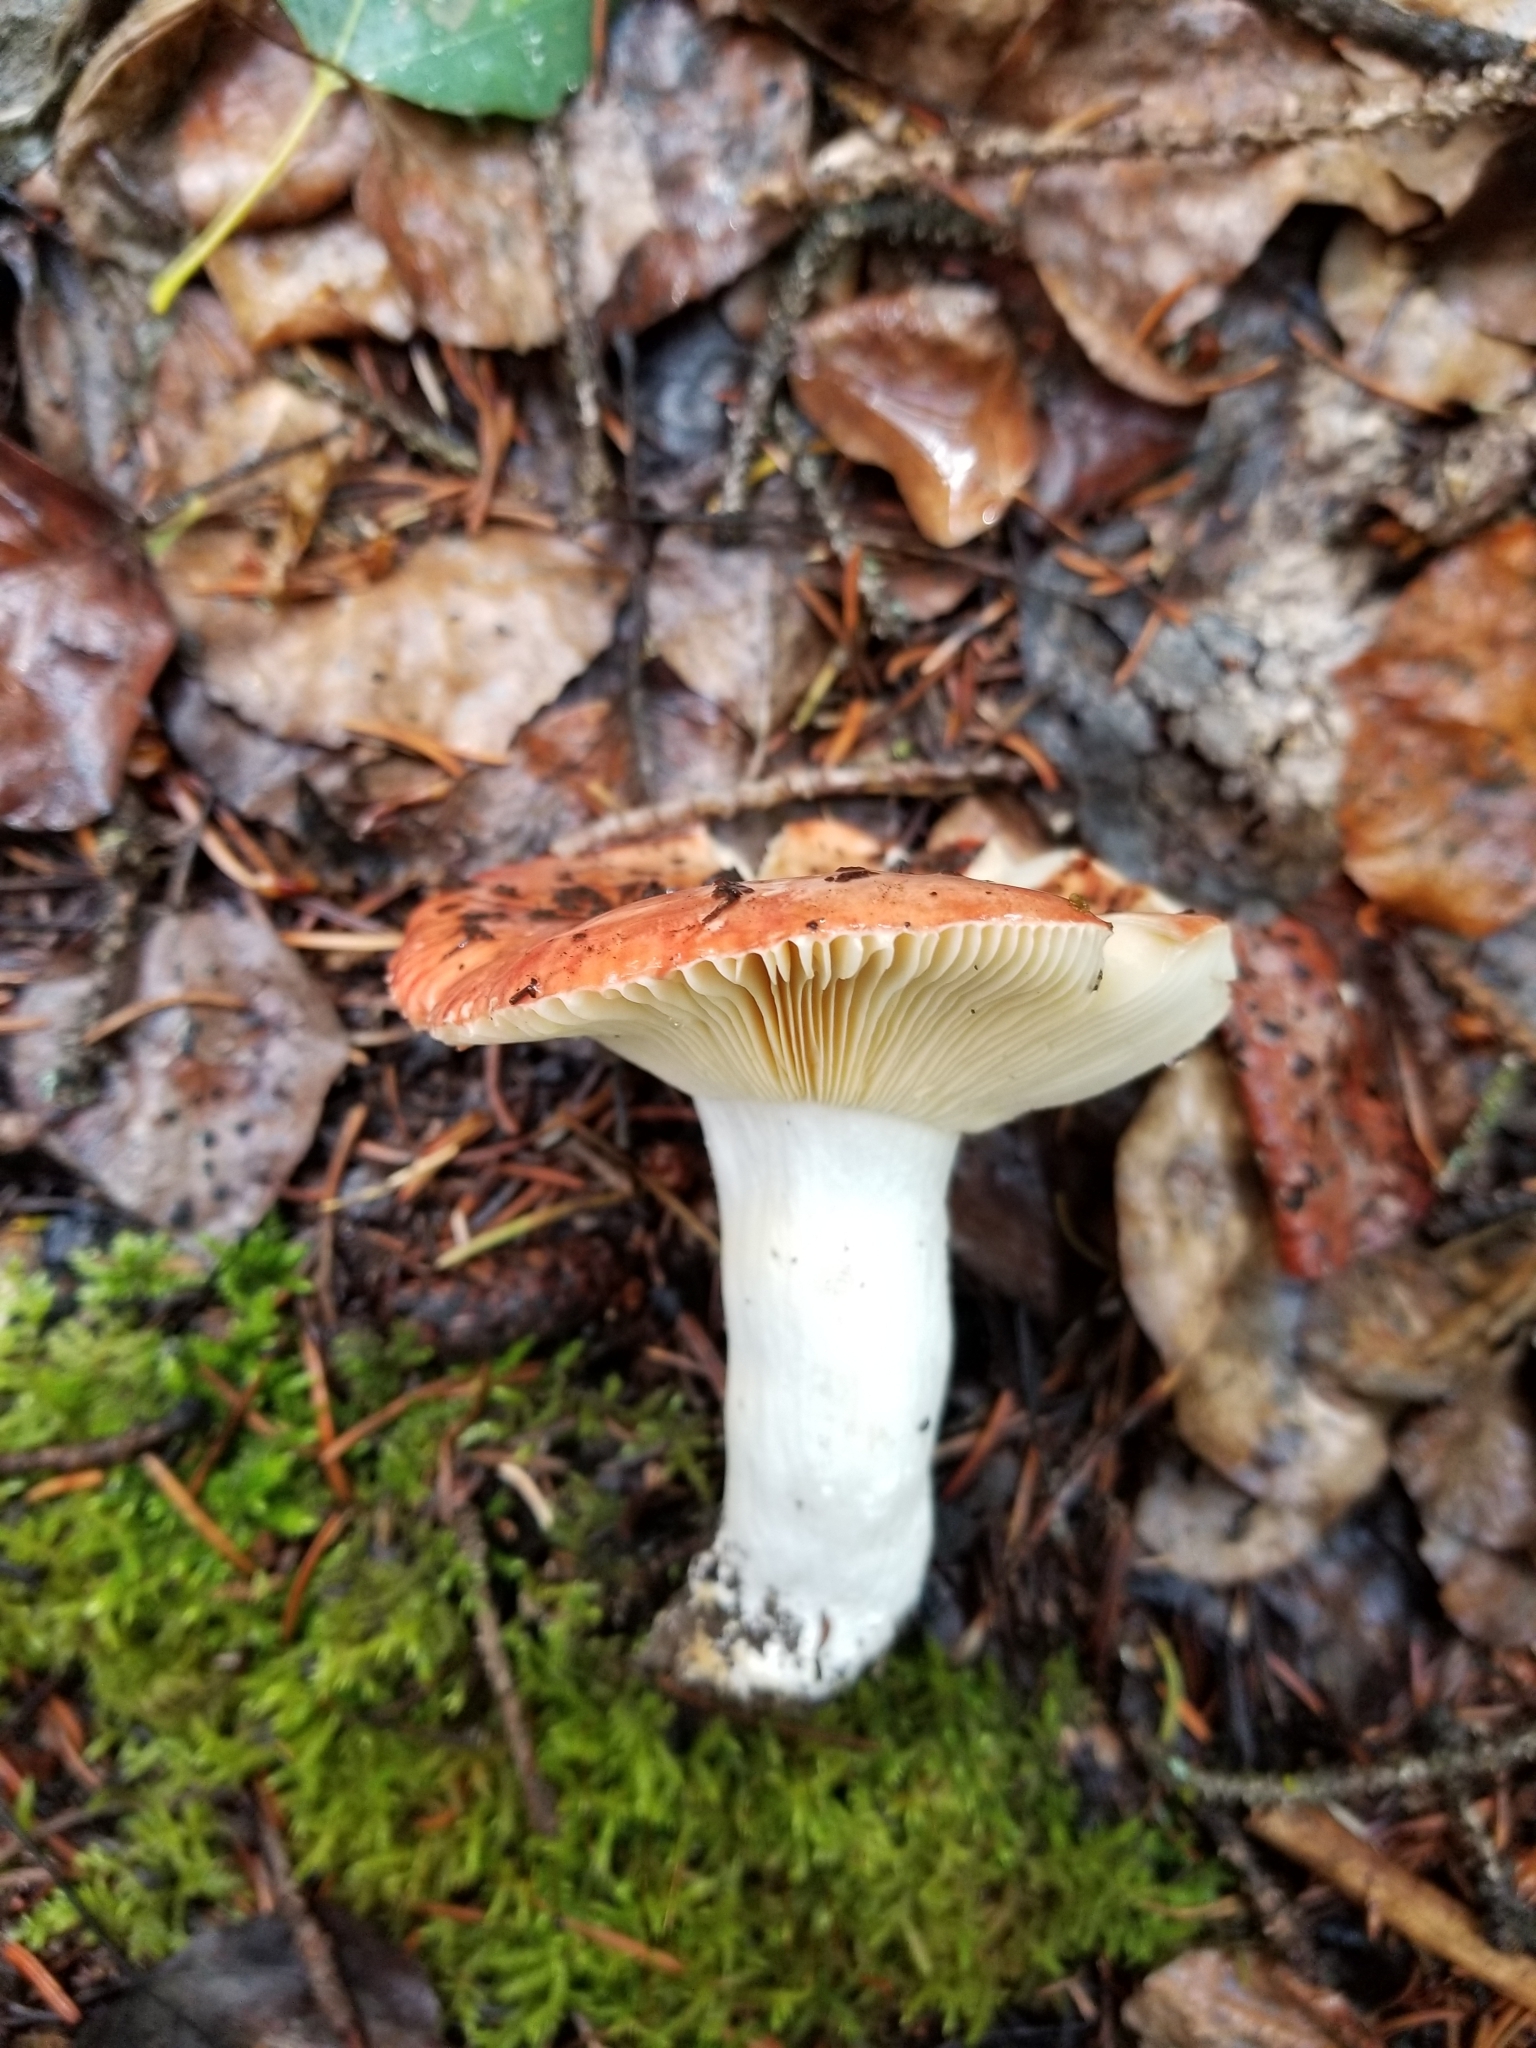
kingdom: Fungi
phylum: Ascomycota
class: Sordariomycetes
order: Hypocreales
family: Hypocreaceae
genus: Hypomyces
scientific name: Hypomyces luteovirens
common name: Yellow-green russula mold
